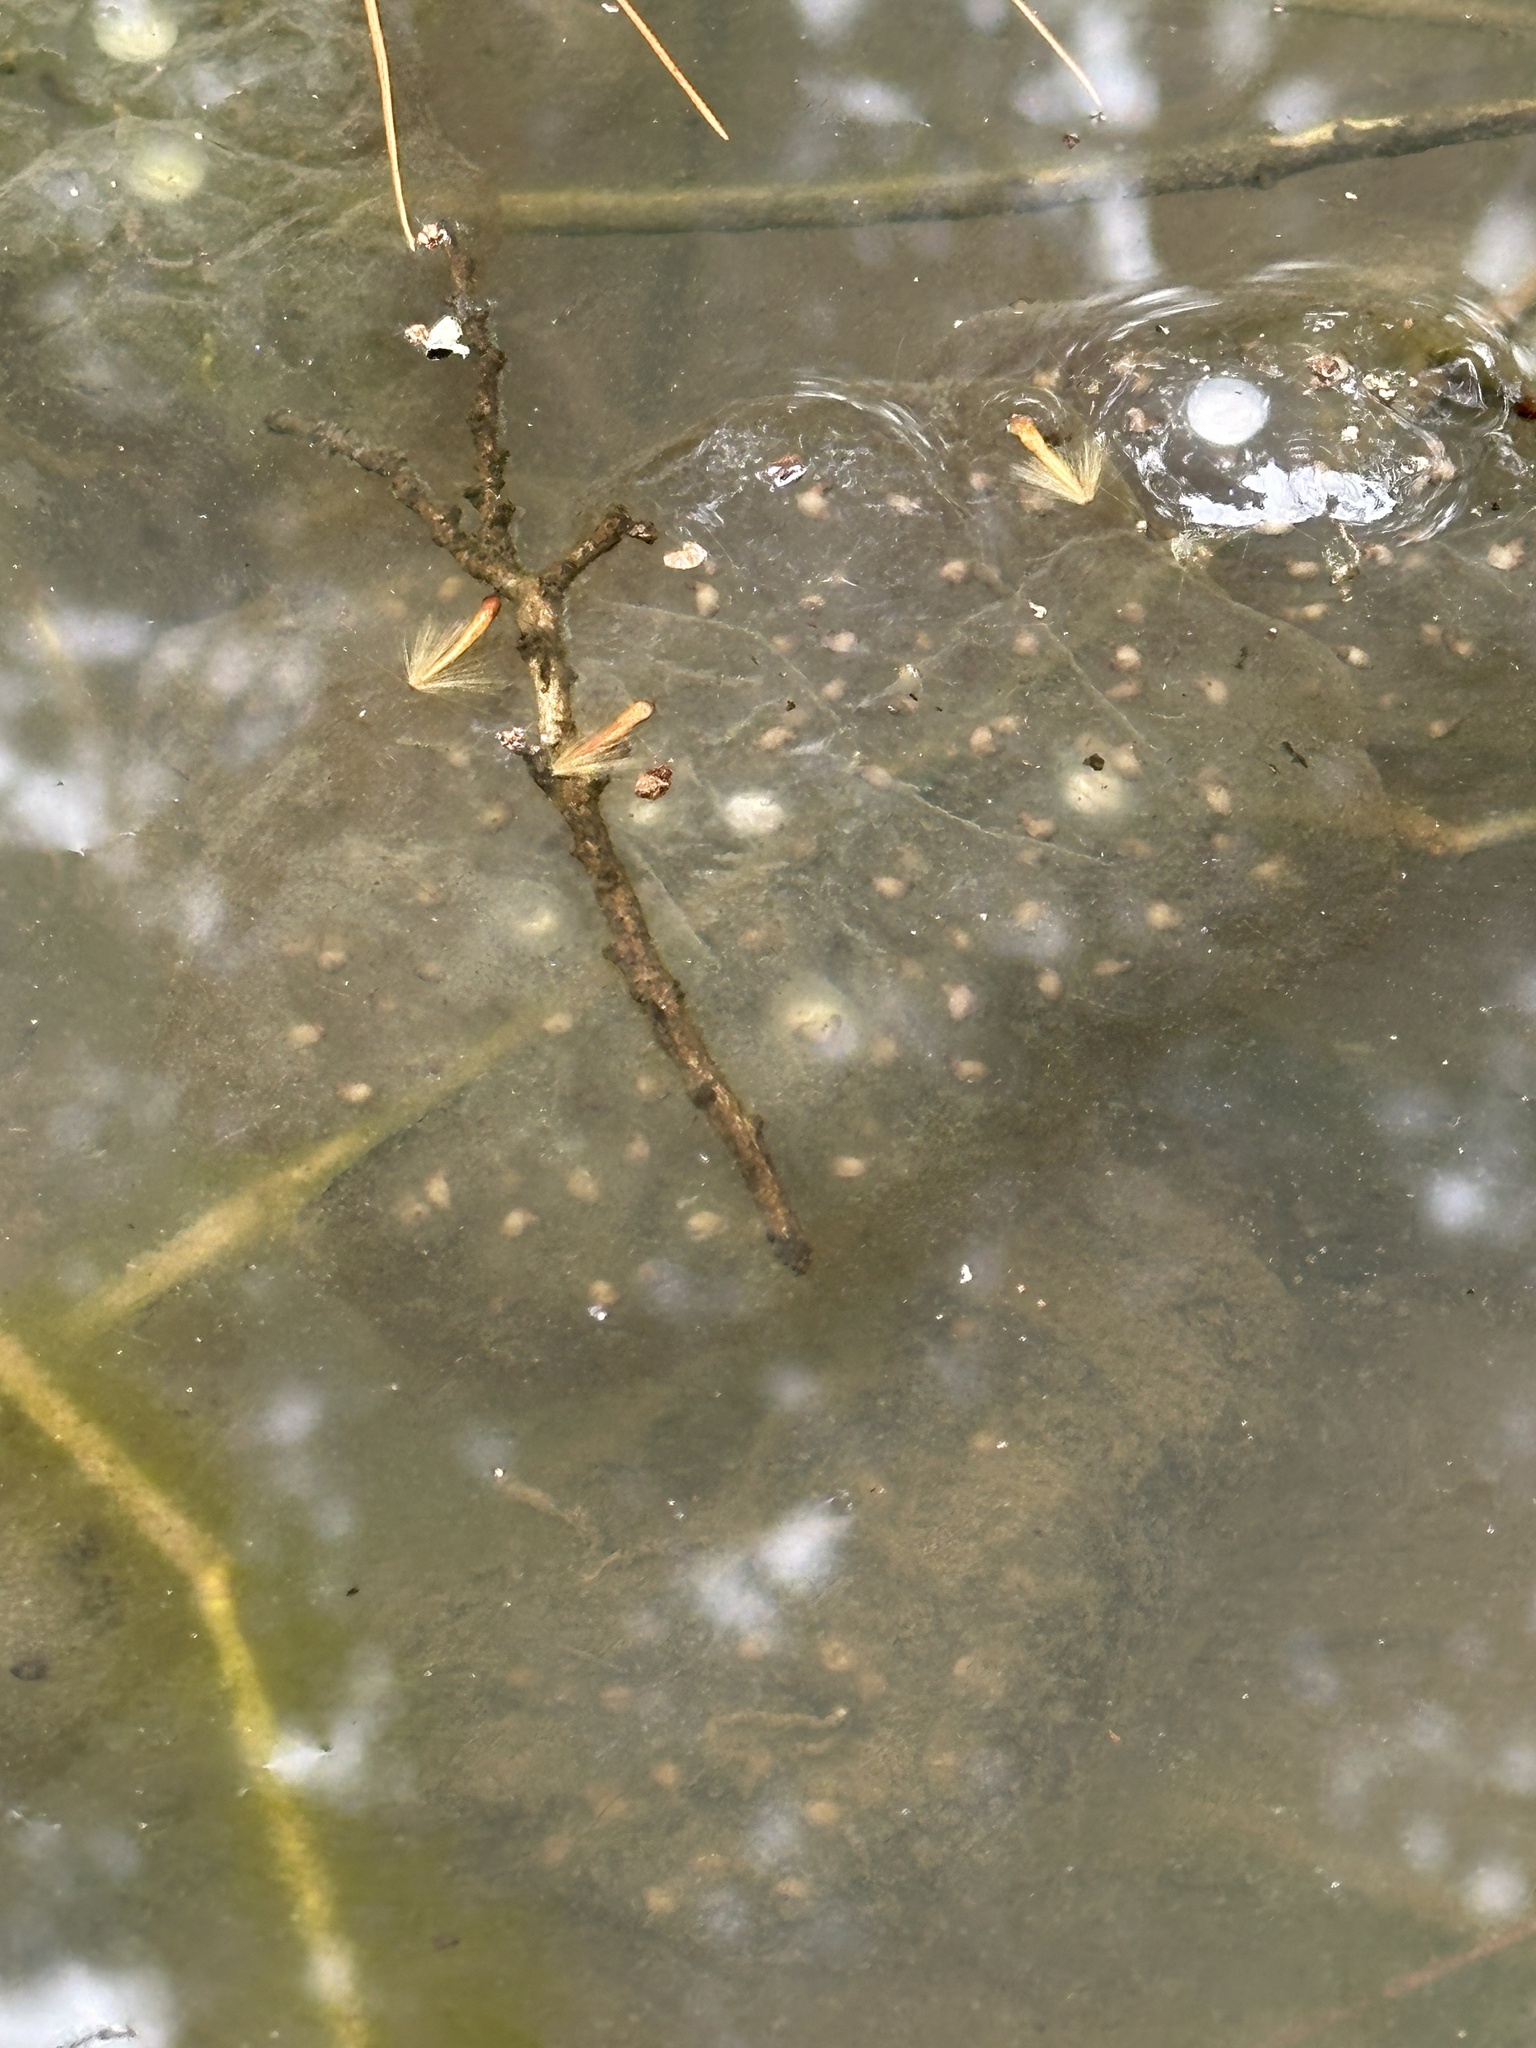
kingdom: Animalia
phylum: Chordata
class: Amphibia
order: Caudata
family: Ambystomatidae
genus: Ambystoma
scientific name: Ambystoma maculatum
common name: Spotted salamander
